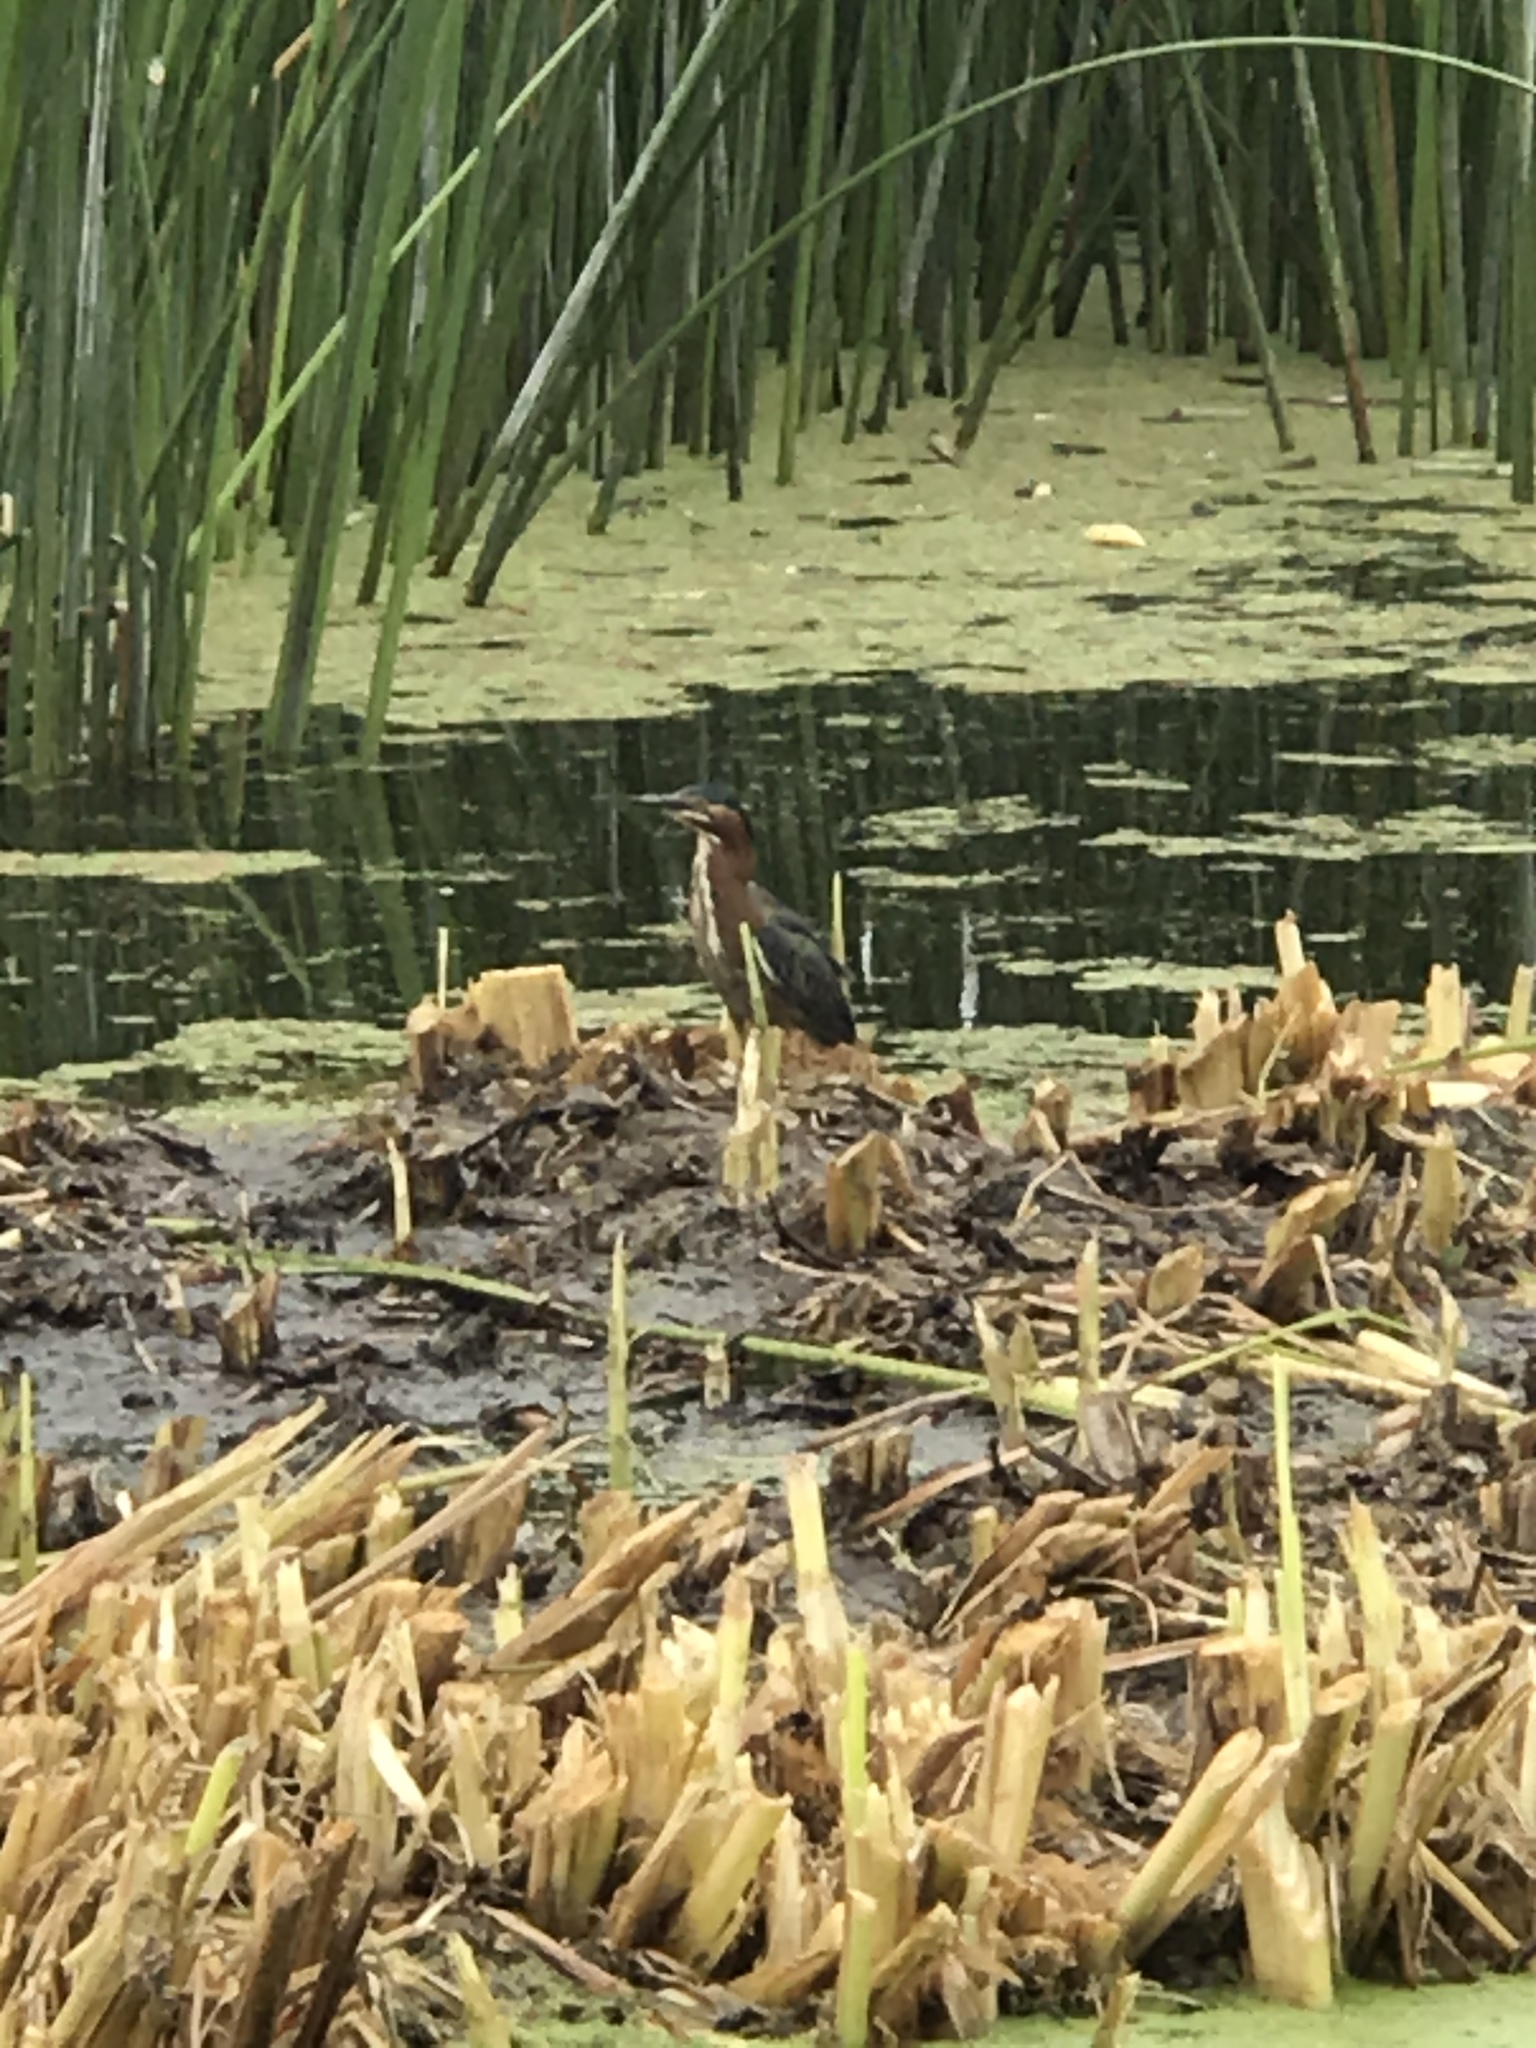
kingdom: Animalia
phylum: Chordata
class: Aves
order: Pelecaniformes
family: Ardeidae
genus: Butorides
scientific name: Butorides virescens
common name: Green heron
